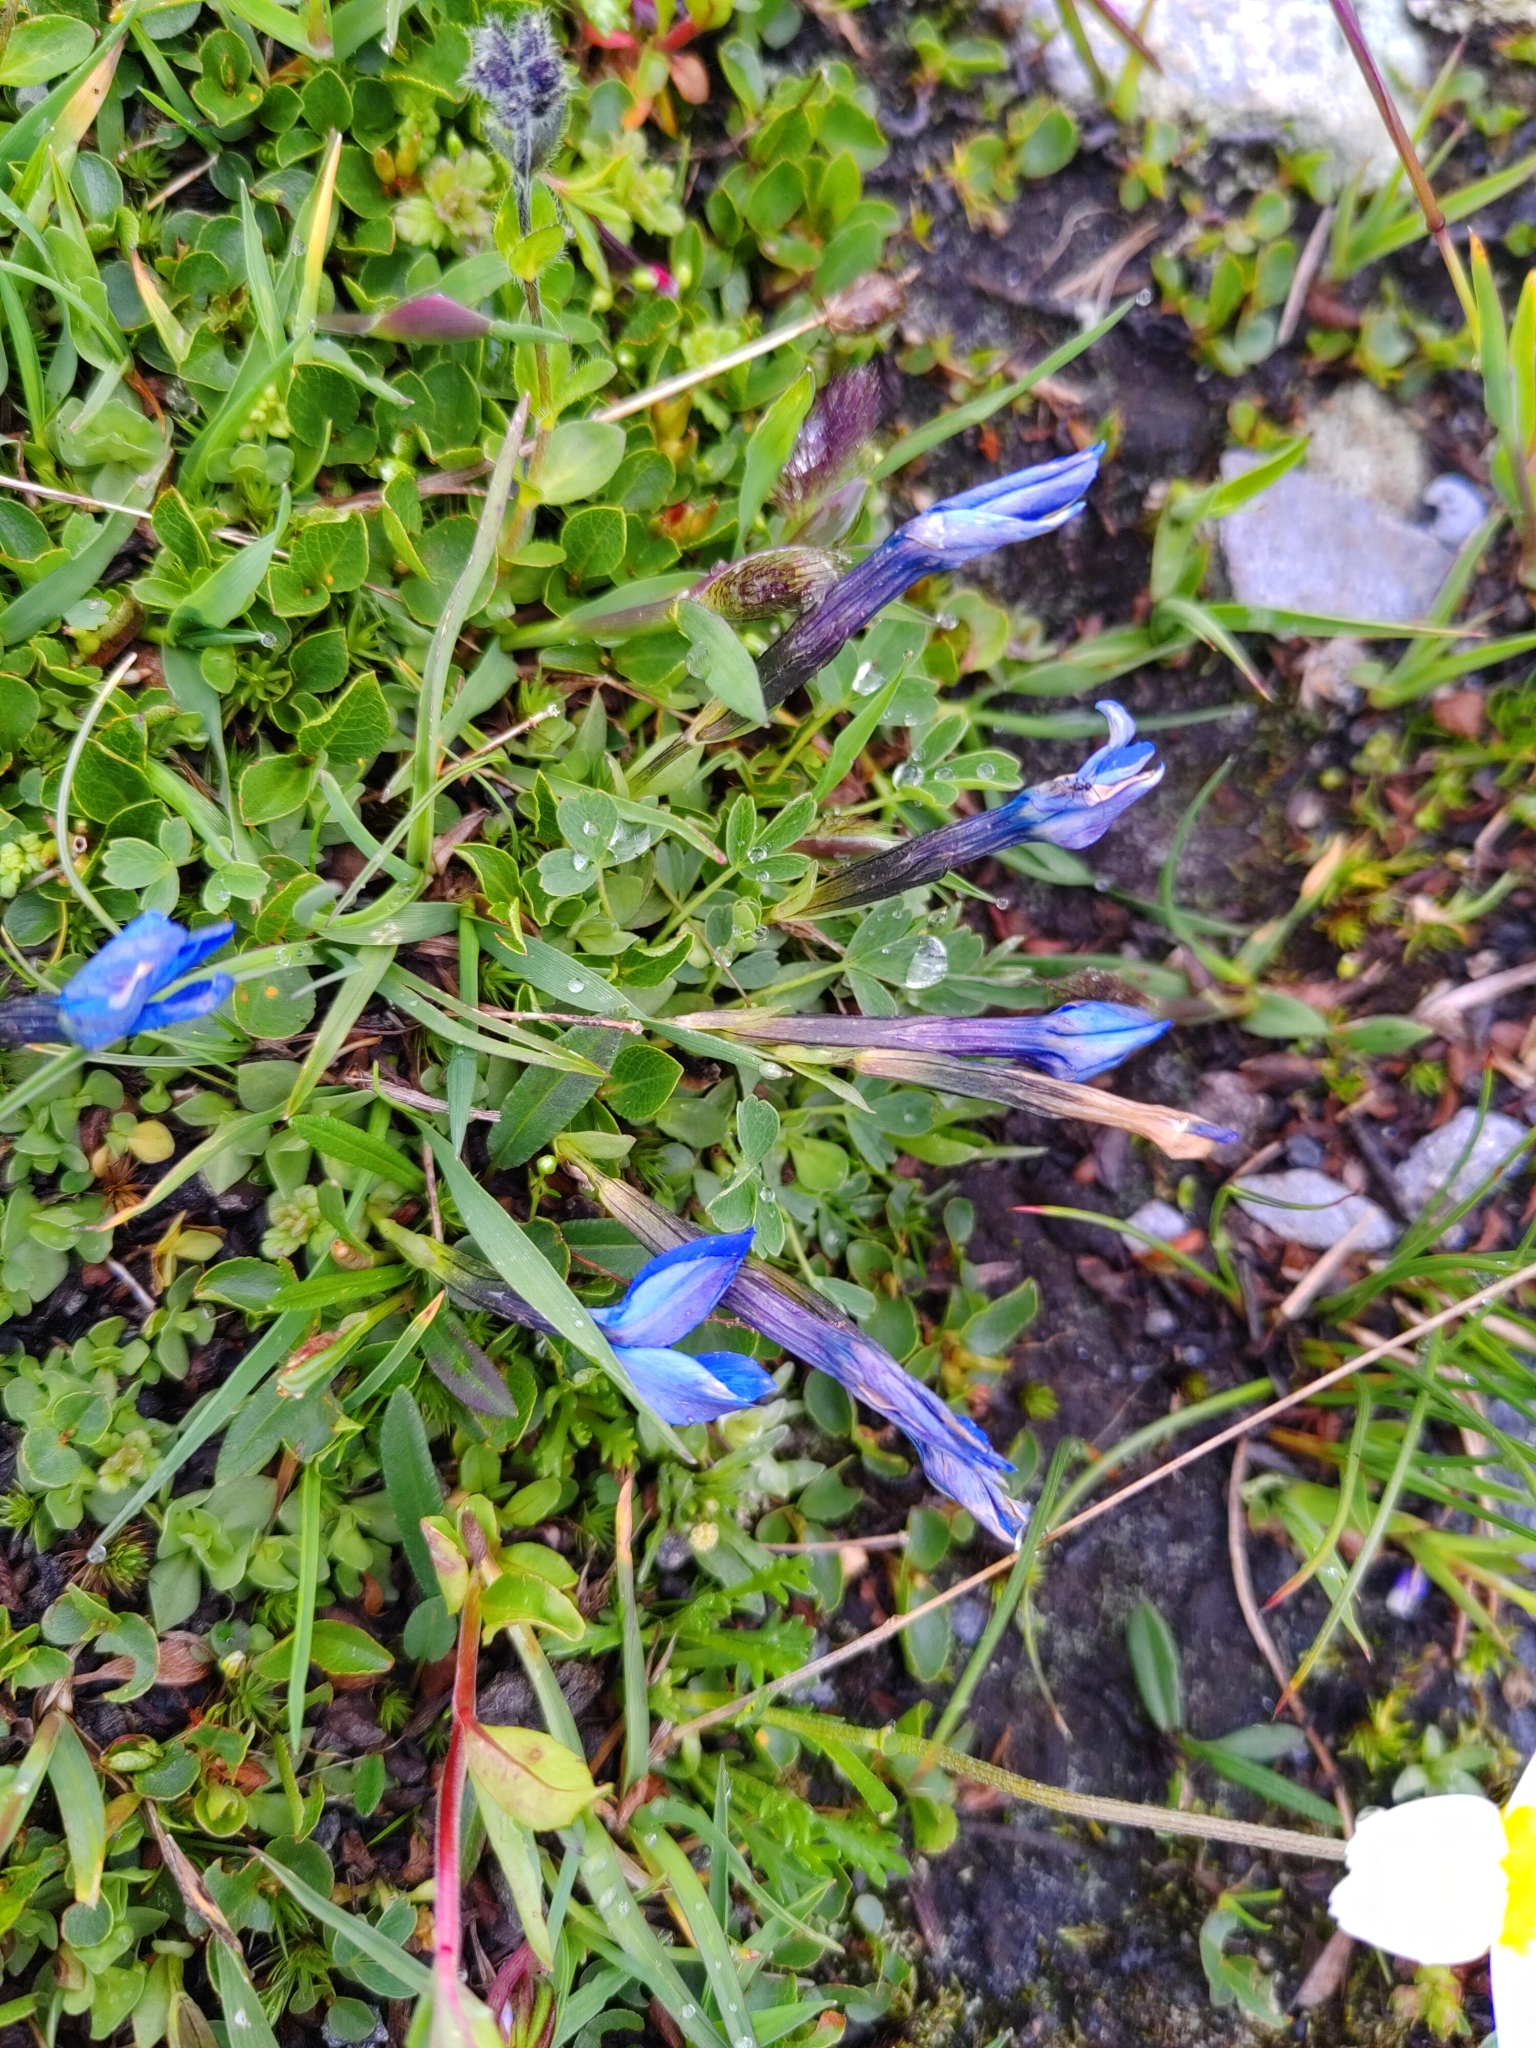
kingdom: Plantae
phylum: Tracheophyta
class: Magnoliopsida
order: Gentianales
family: Gentianaceae
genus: Gentiana
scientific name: Gentiana brachyphylla
